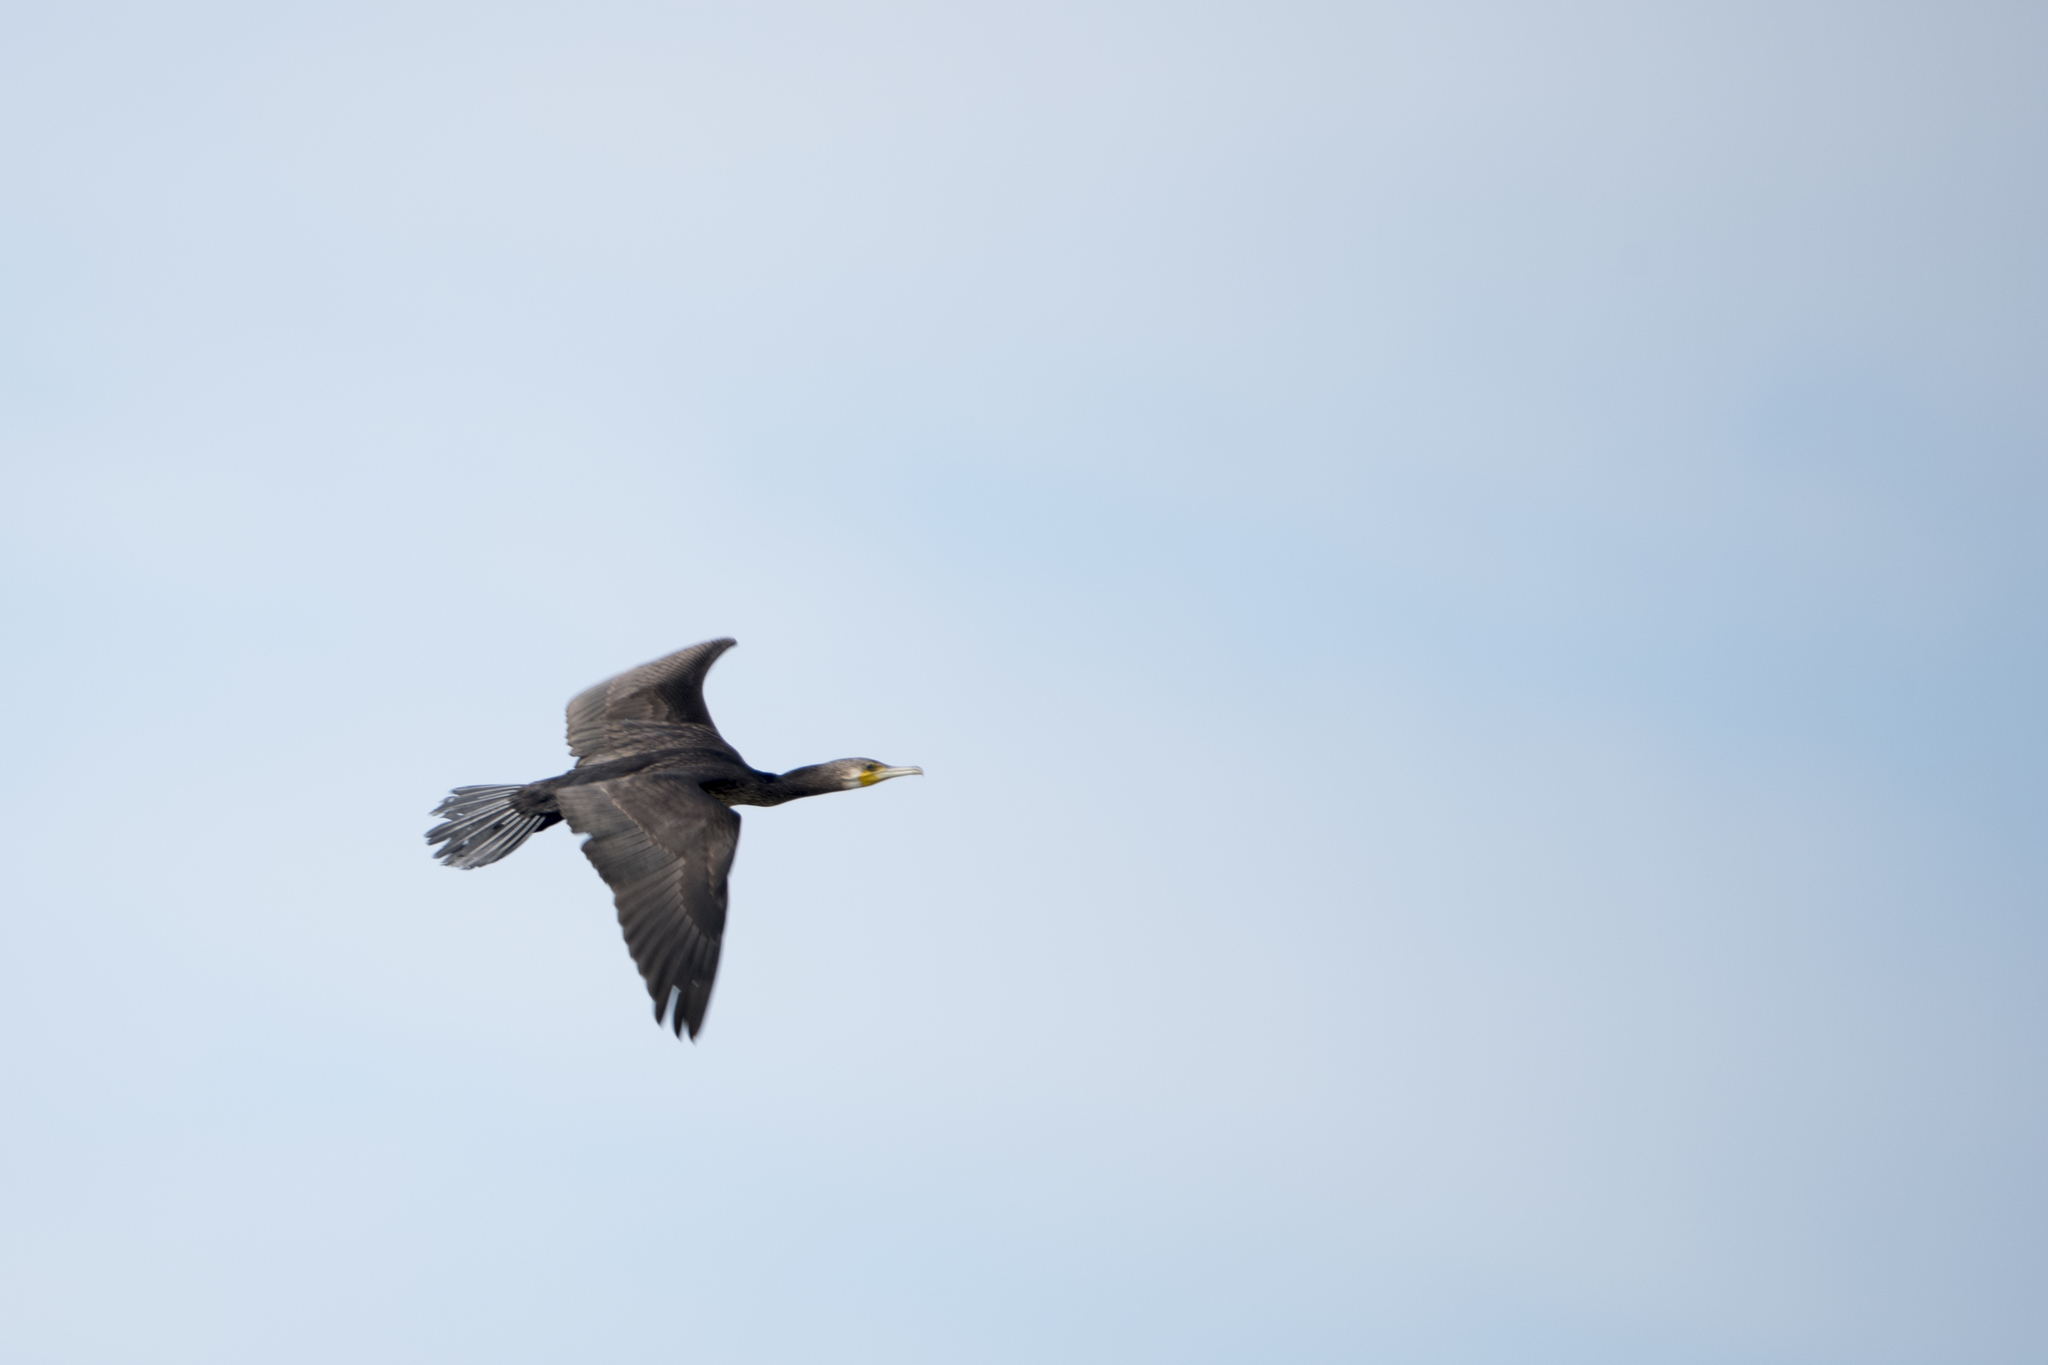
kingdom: Animalia
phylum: Chordata
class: Aves
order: Suliformes
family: Phalacrocoracidae
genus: Phalacrocorax
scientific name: Phalacrocorax carbo
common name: Great cormorant
